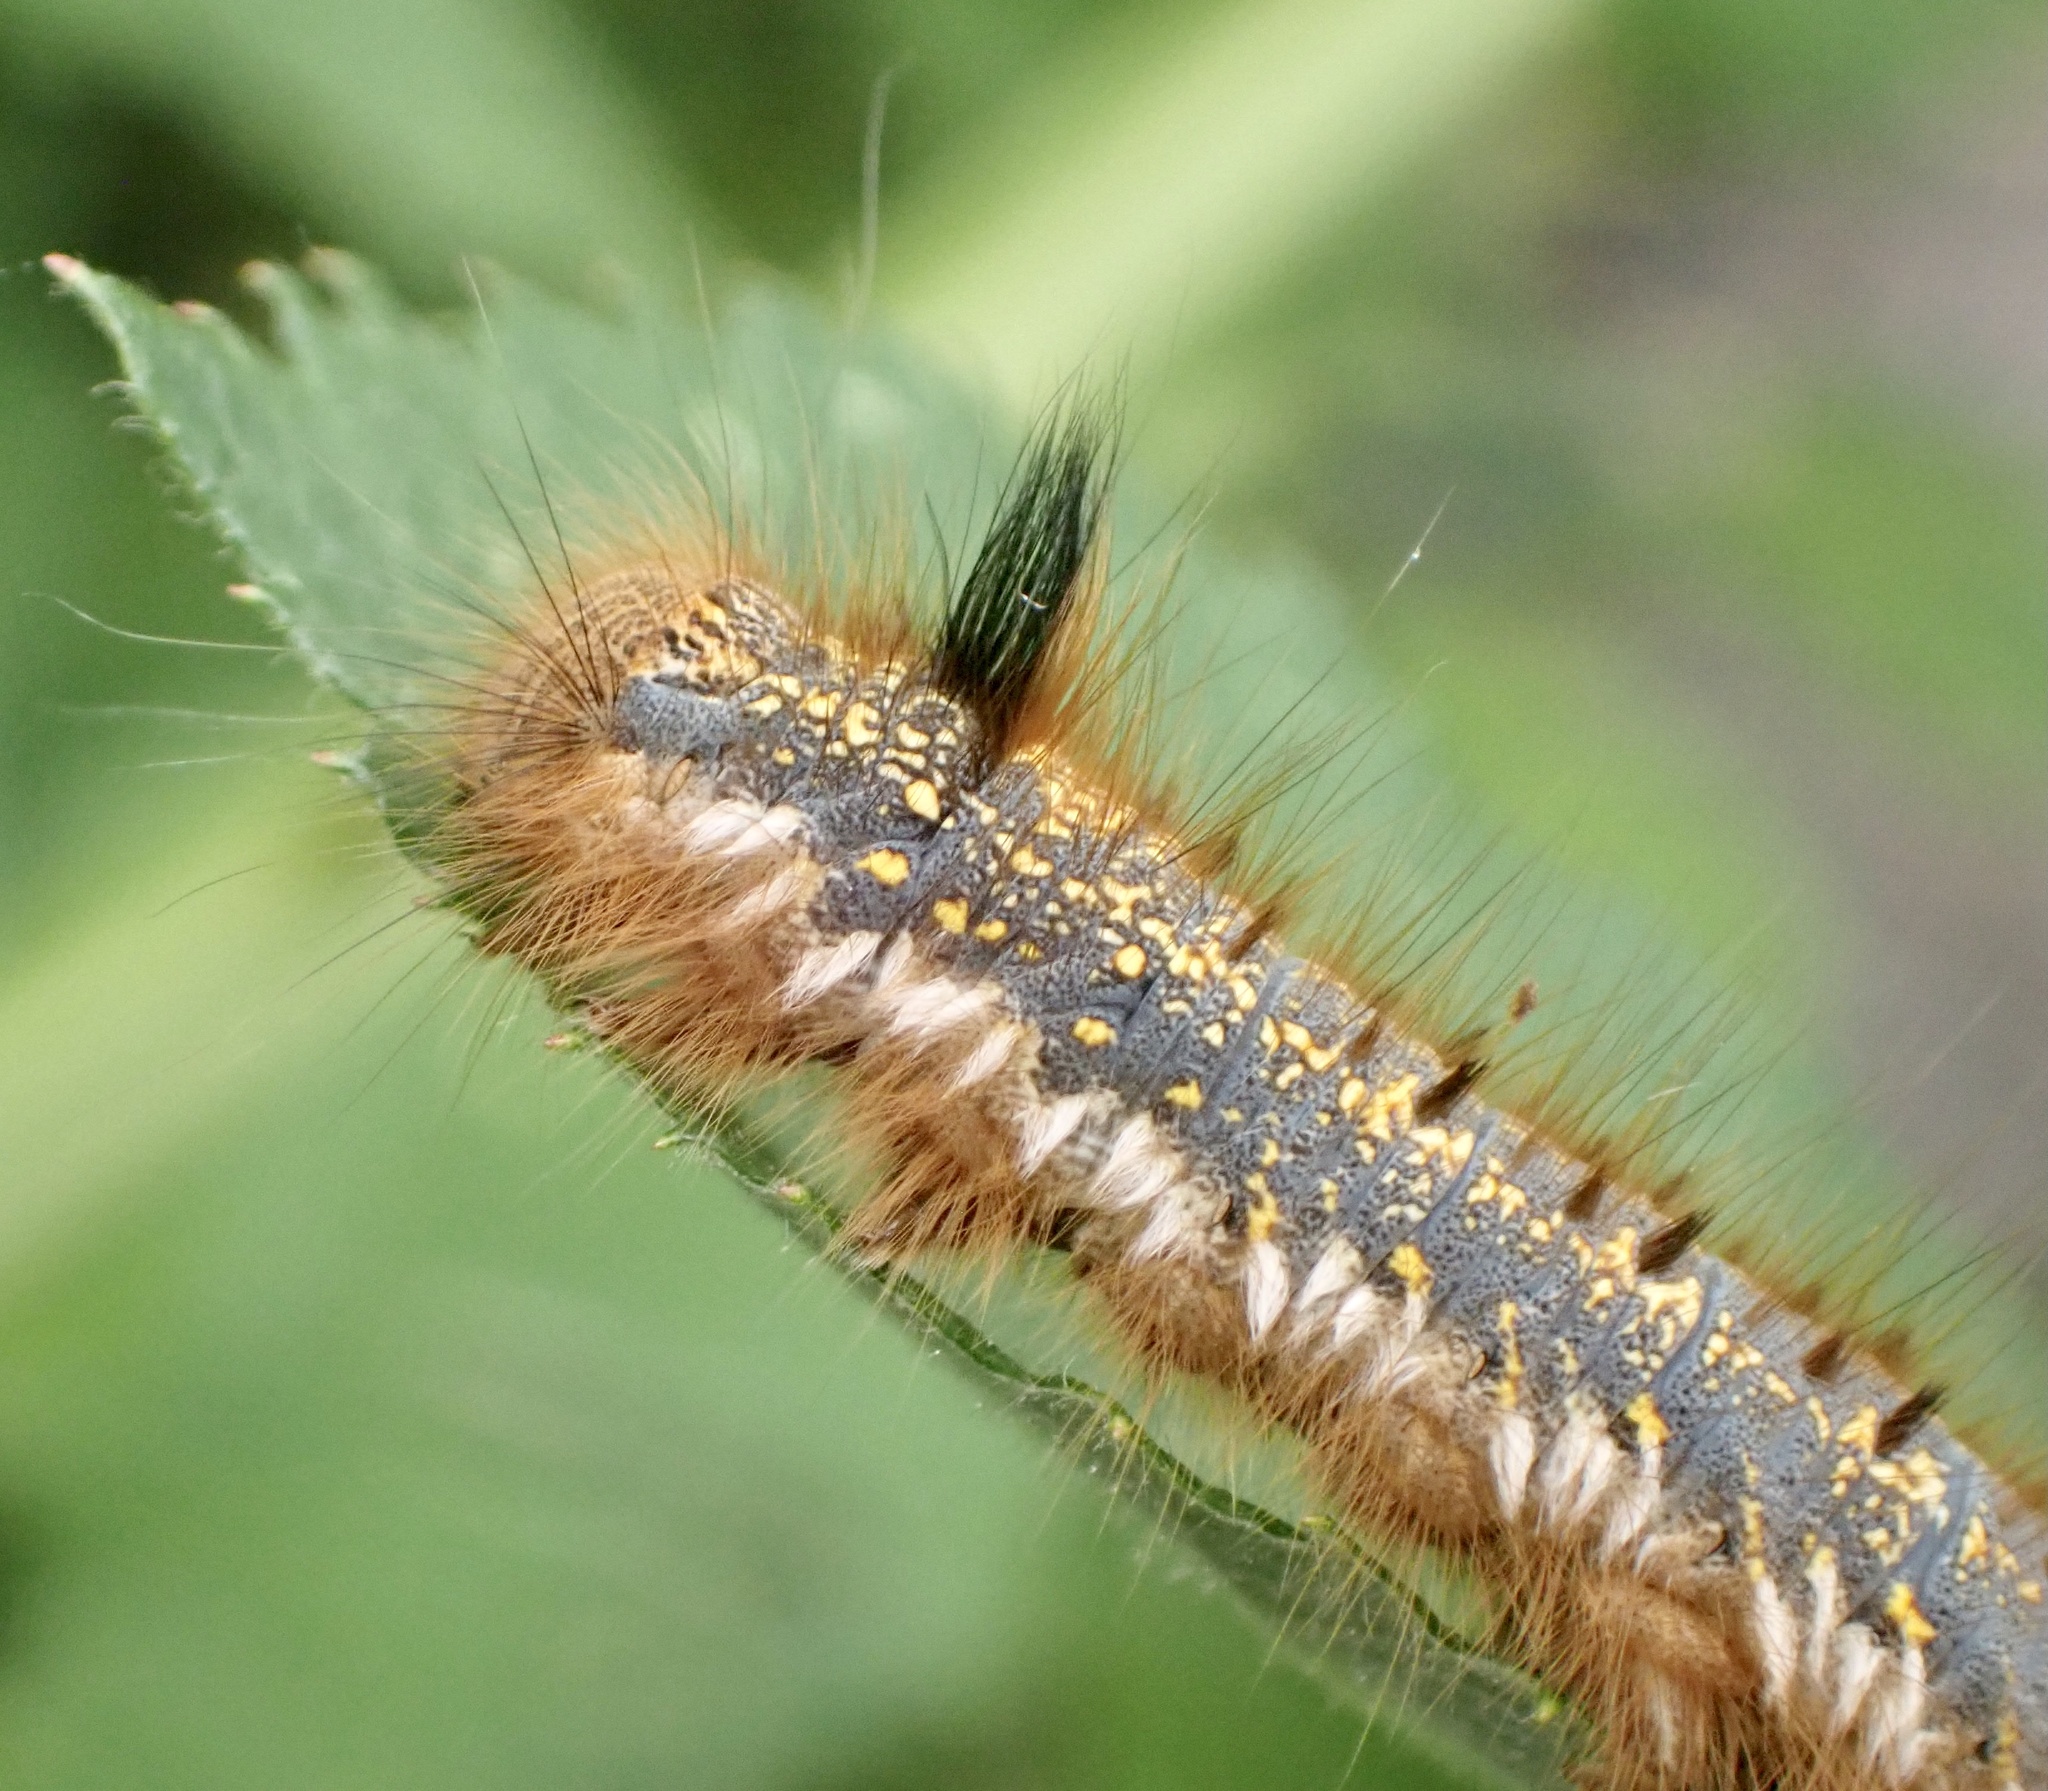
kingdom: Animalia
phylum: Arthropoda
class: Insecta
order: Lepidoptera
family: Lasiocampidae
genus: Euthrix
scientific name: Euthrix potatoria
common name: Drinker
